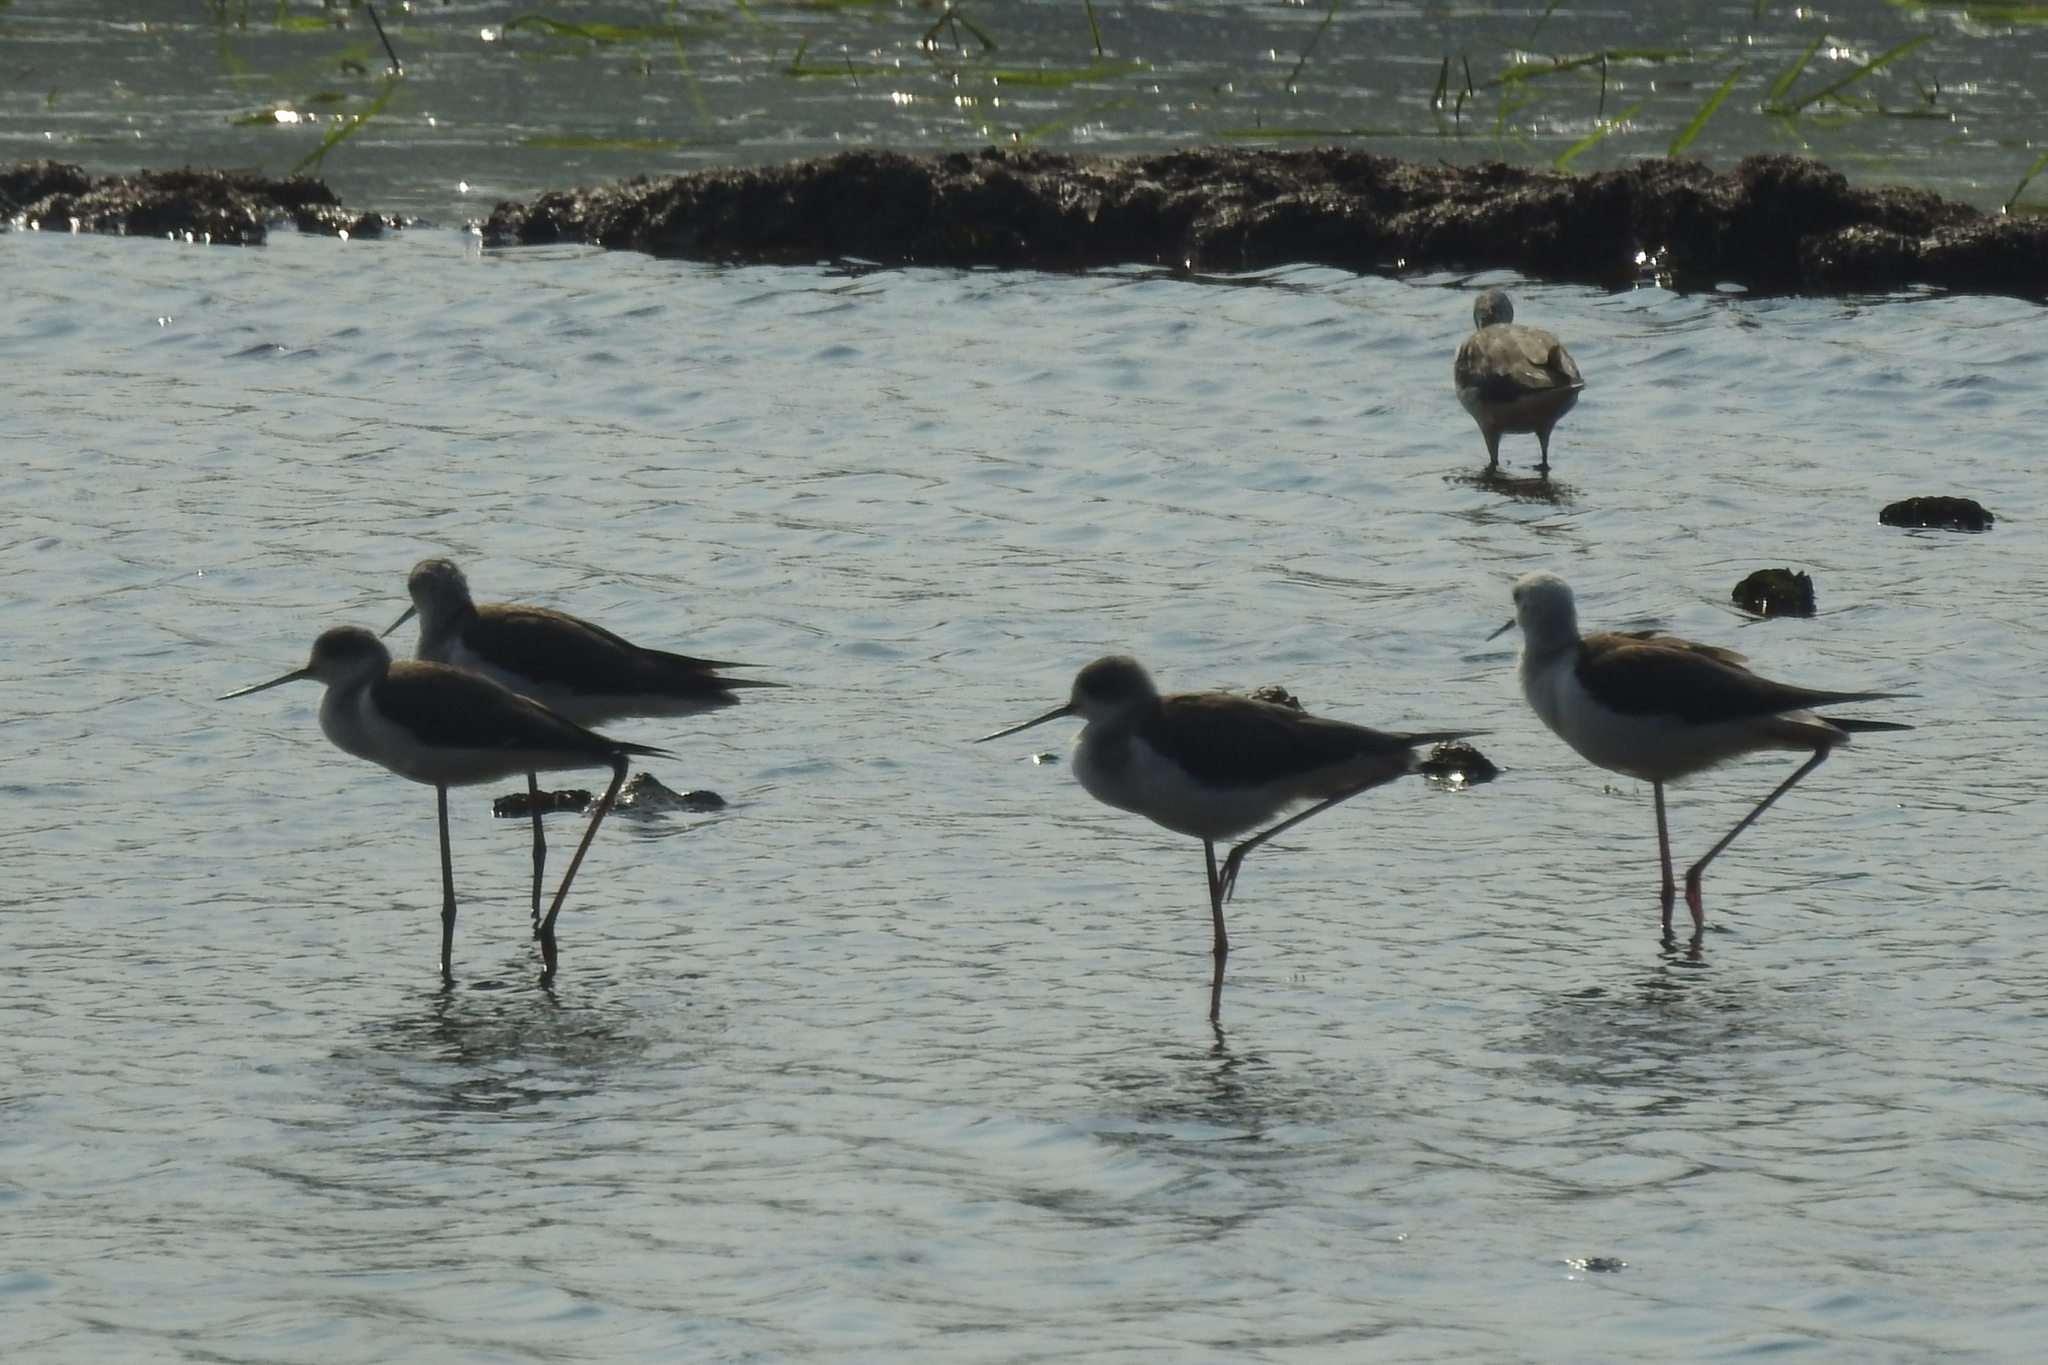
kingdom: Animalia
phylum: Chordata
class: Aves
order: Charadriiformes
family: Recurvirostridae
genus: Himantopus
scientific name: Himantopus himantopus
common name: Black-winged stilt
